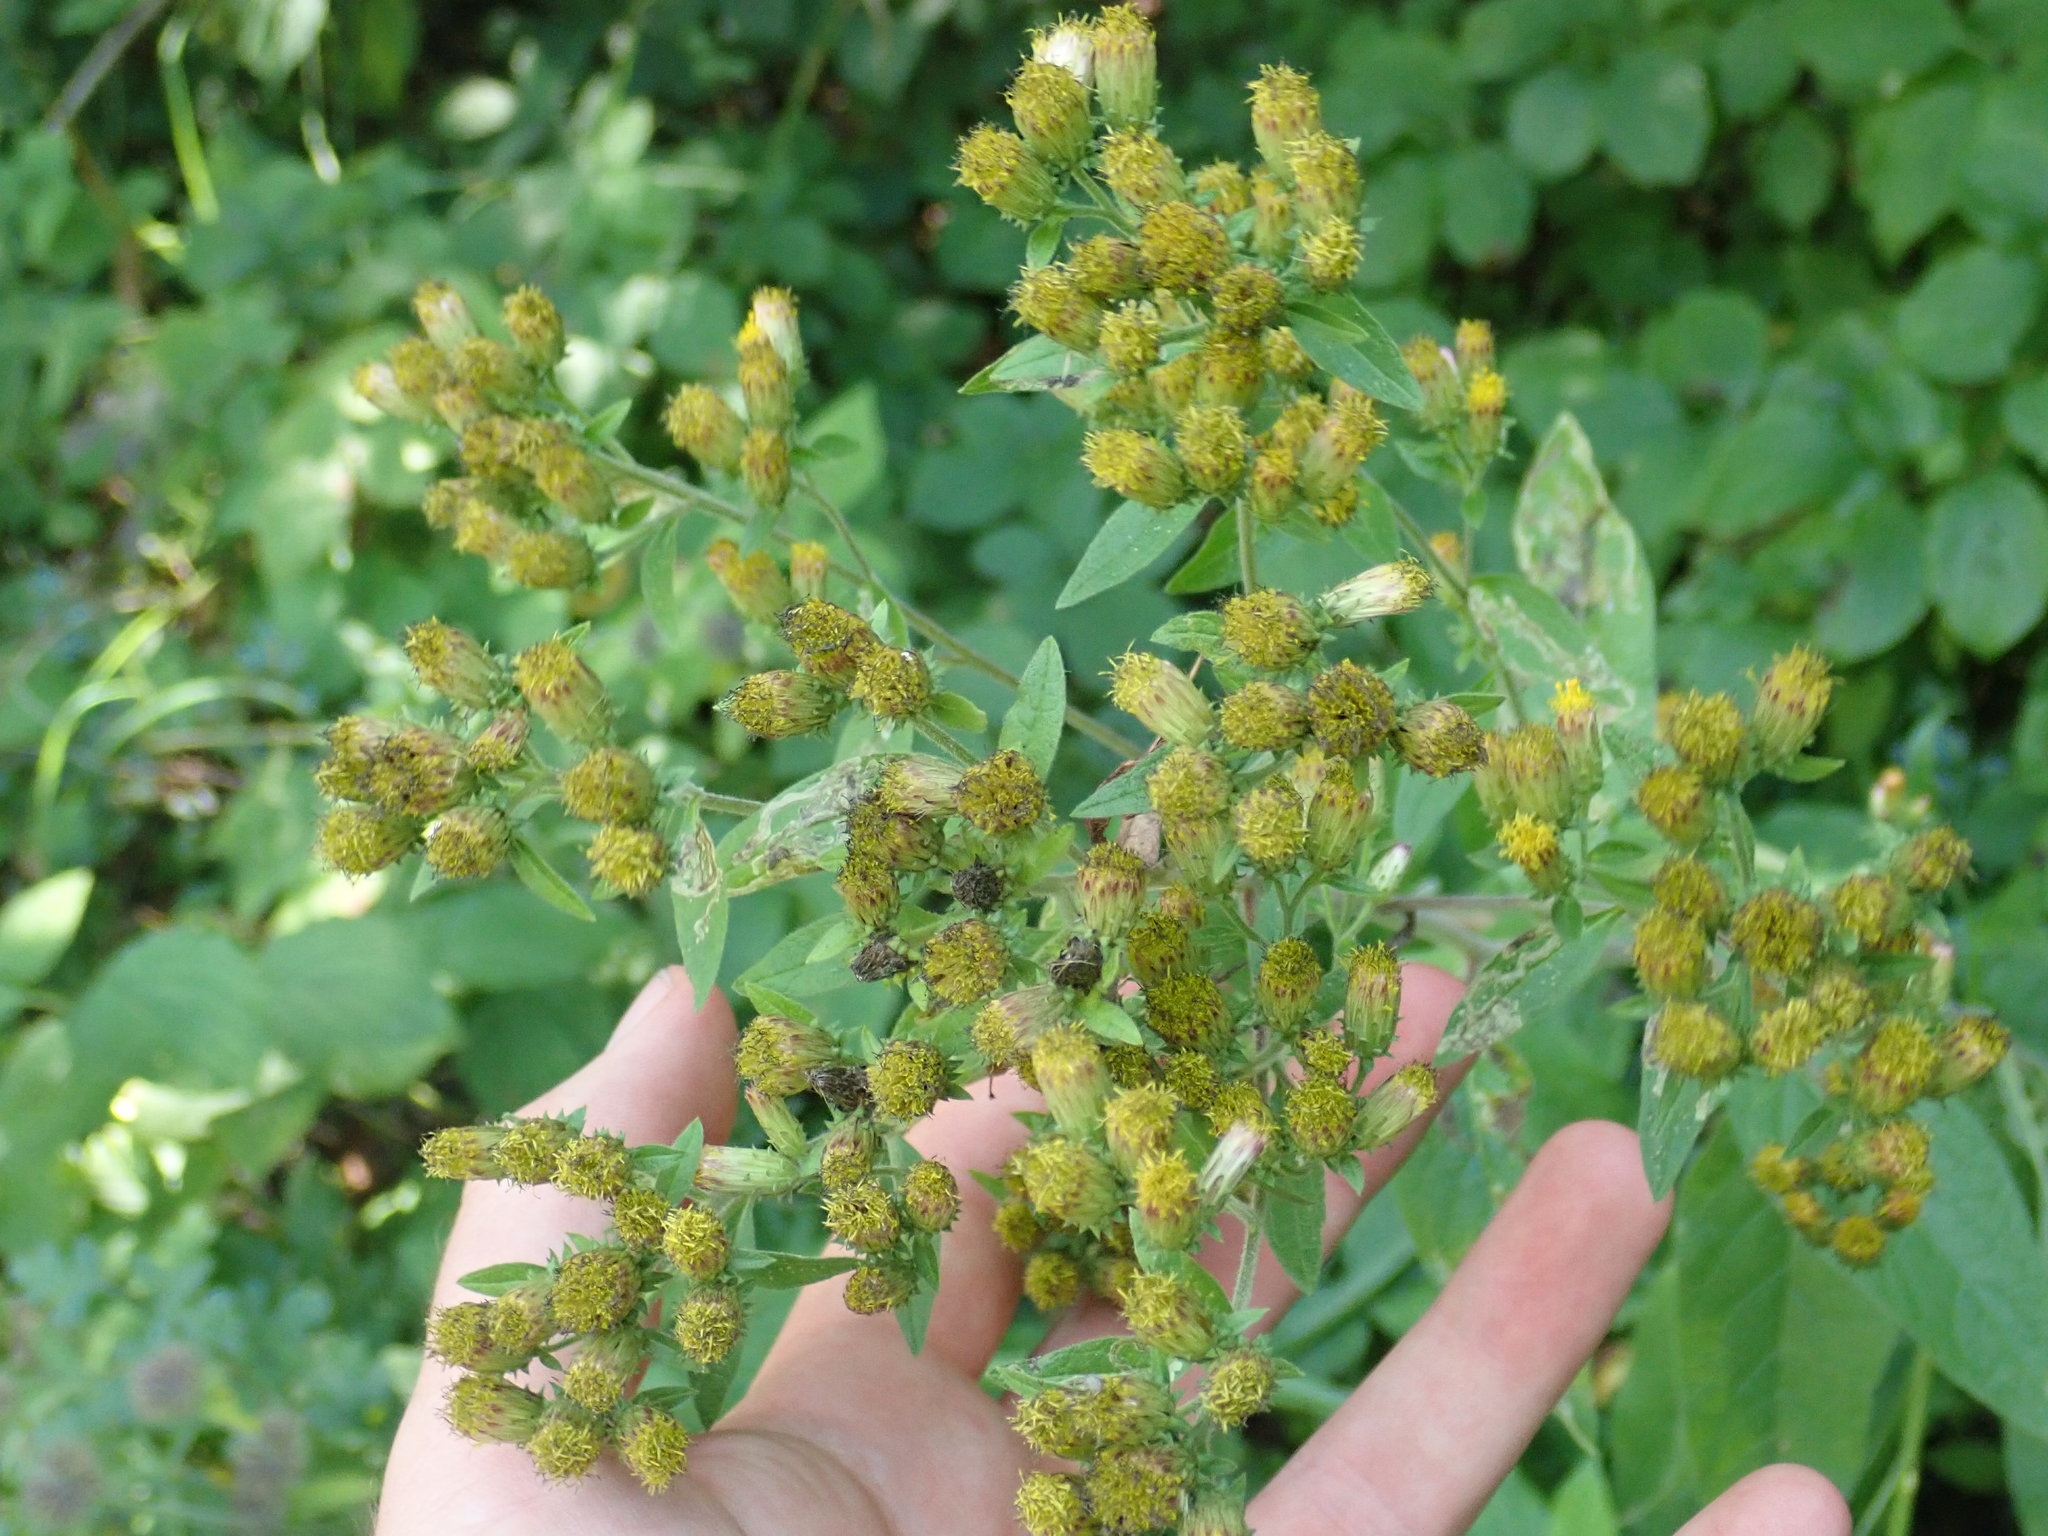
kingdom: Plantae
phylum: Tracheophyta
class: Magnoliopsida
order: Asterales
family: Asteraceae
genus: Pentanema
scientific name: Pentanema squarrosum
